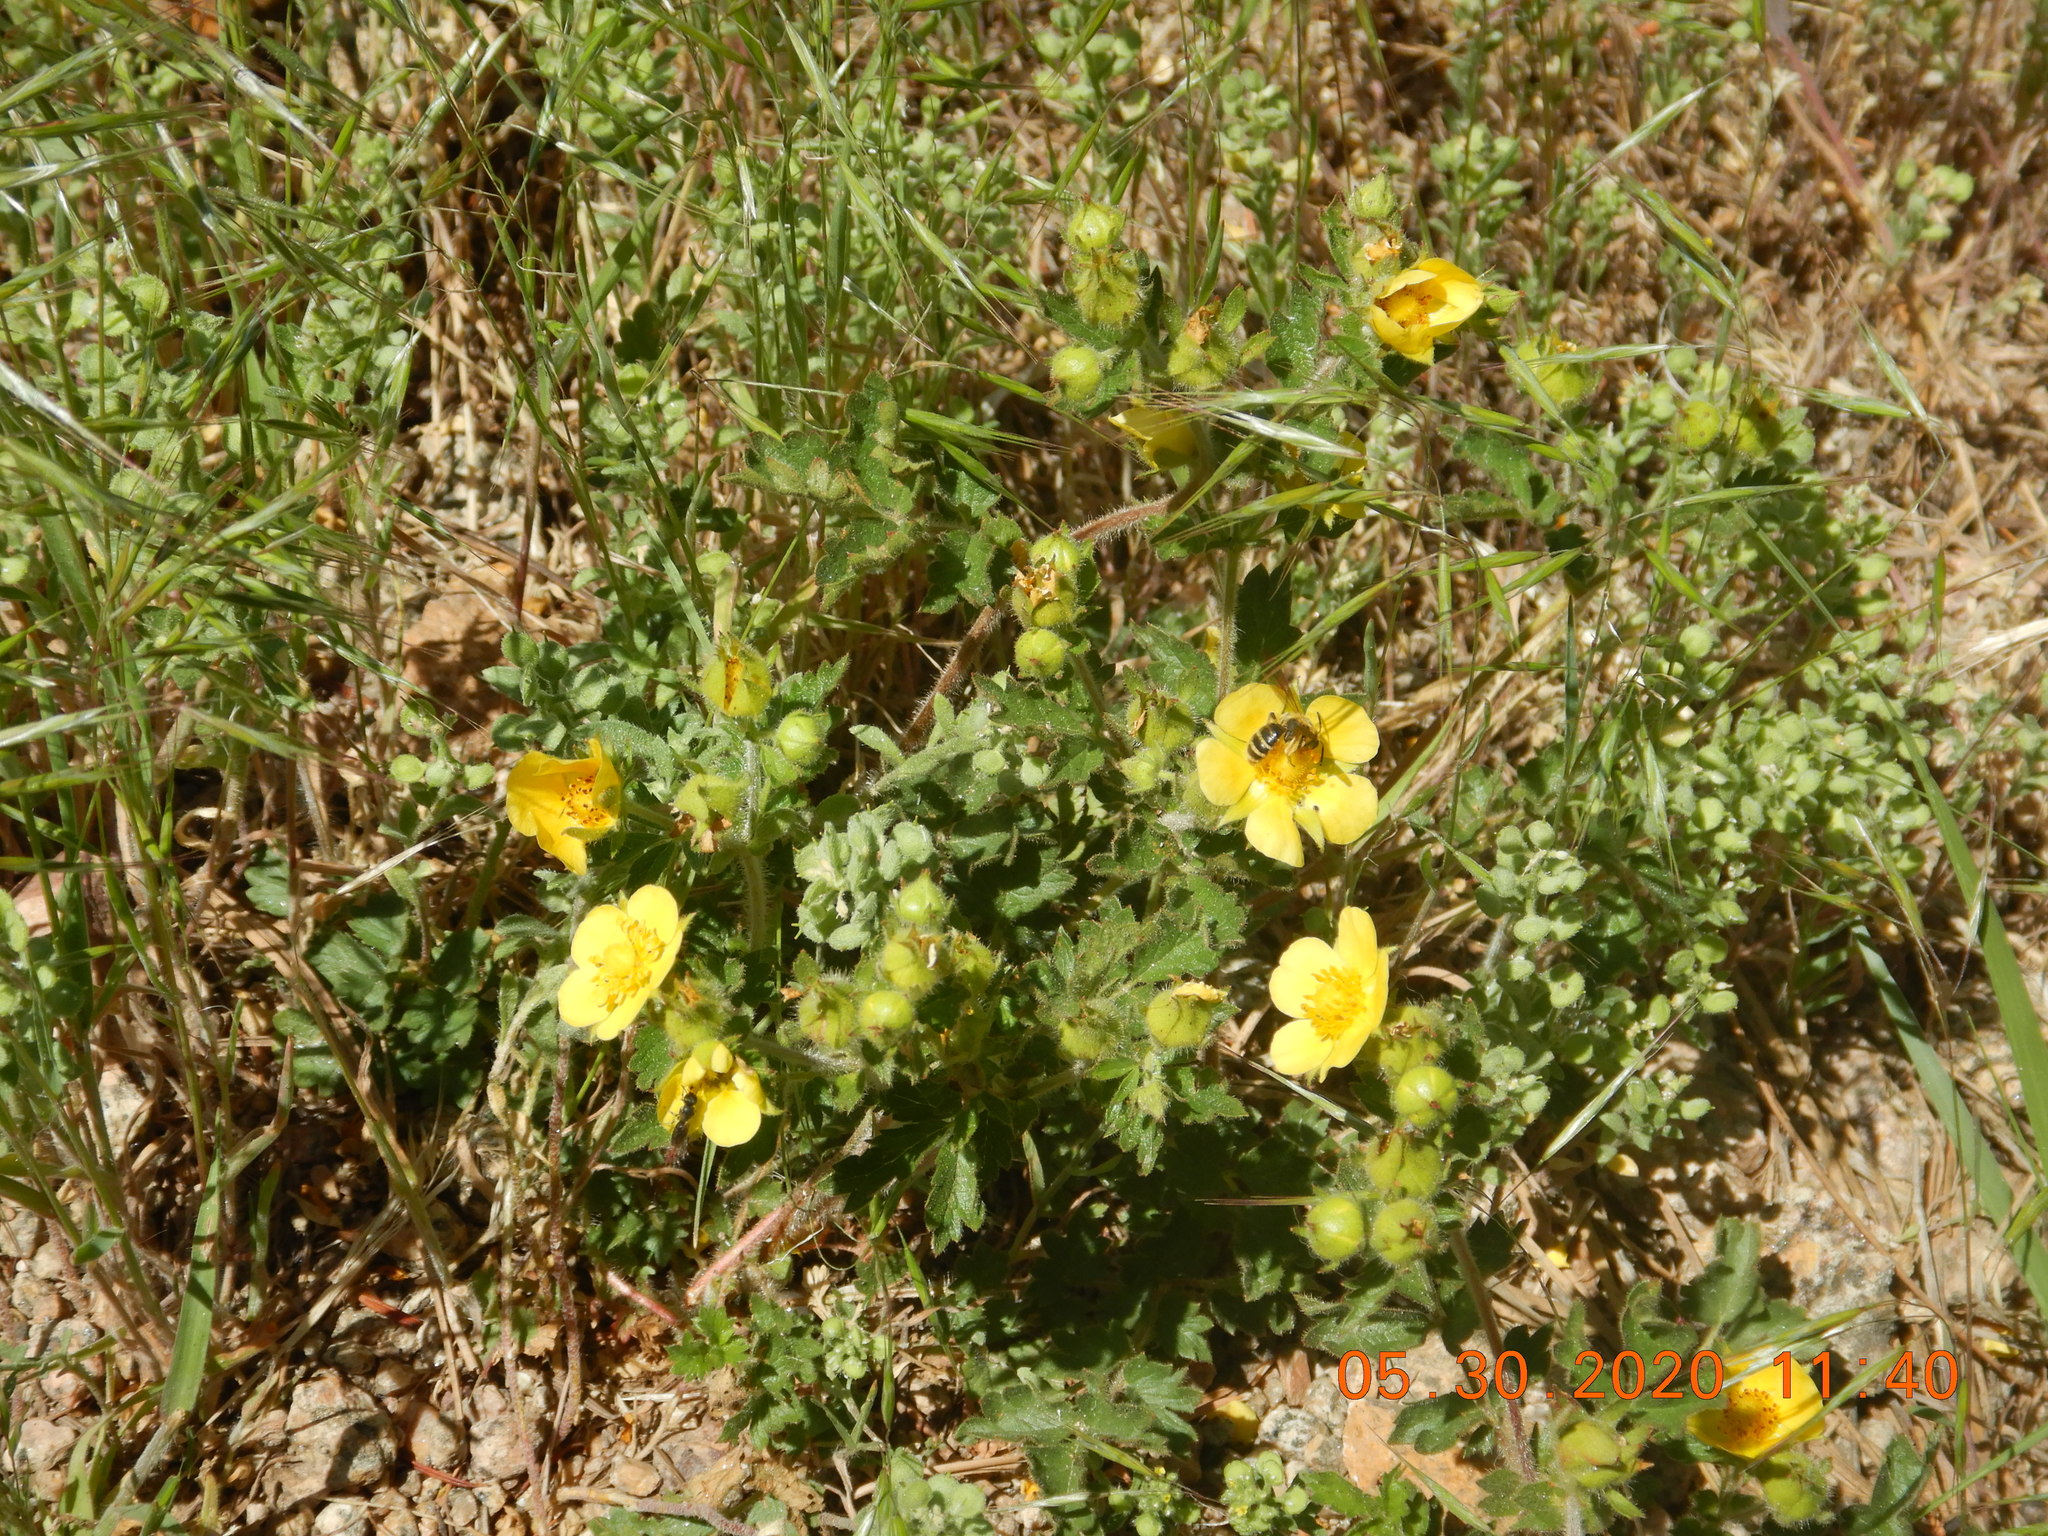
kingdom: Plantae
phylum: Tracheophyta
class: Magnoliopsida
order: Rosales
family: Rosaceae
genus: Drymocallis
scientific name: Drymocallis fissa
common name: Big-flowered cinquefoil
